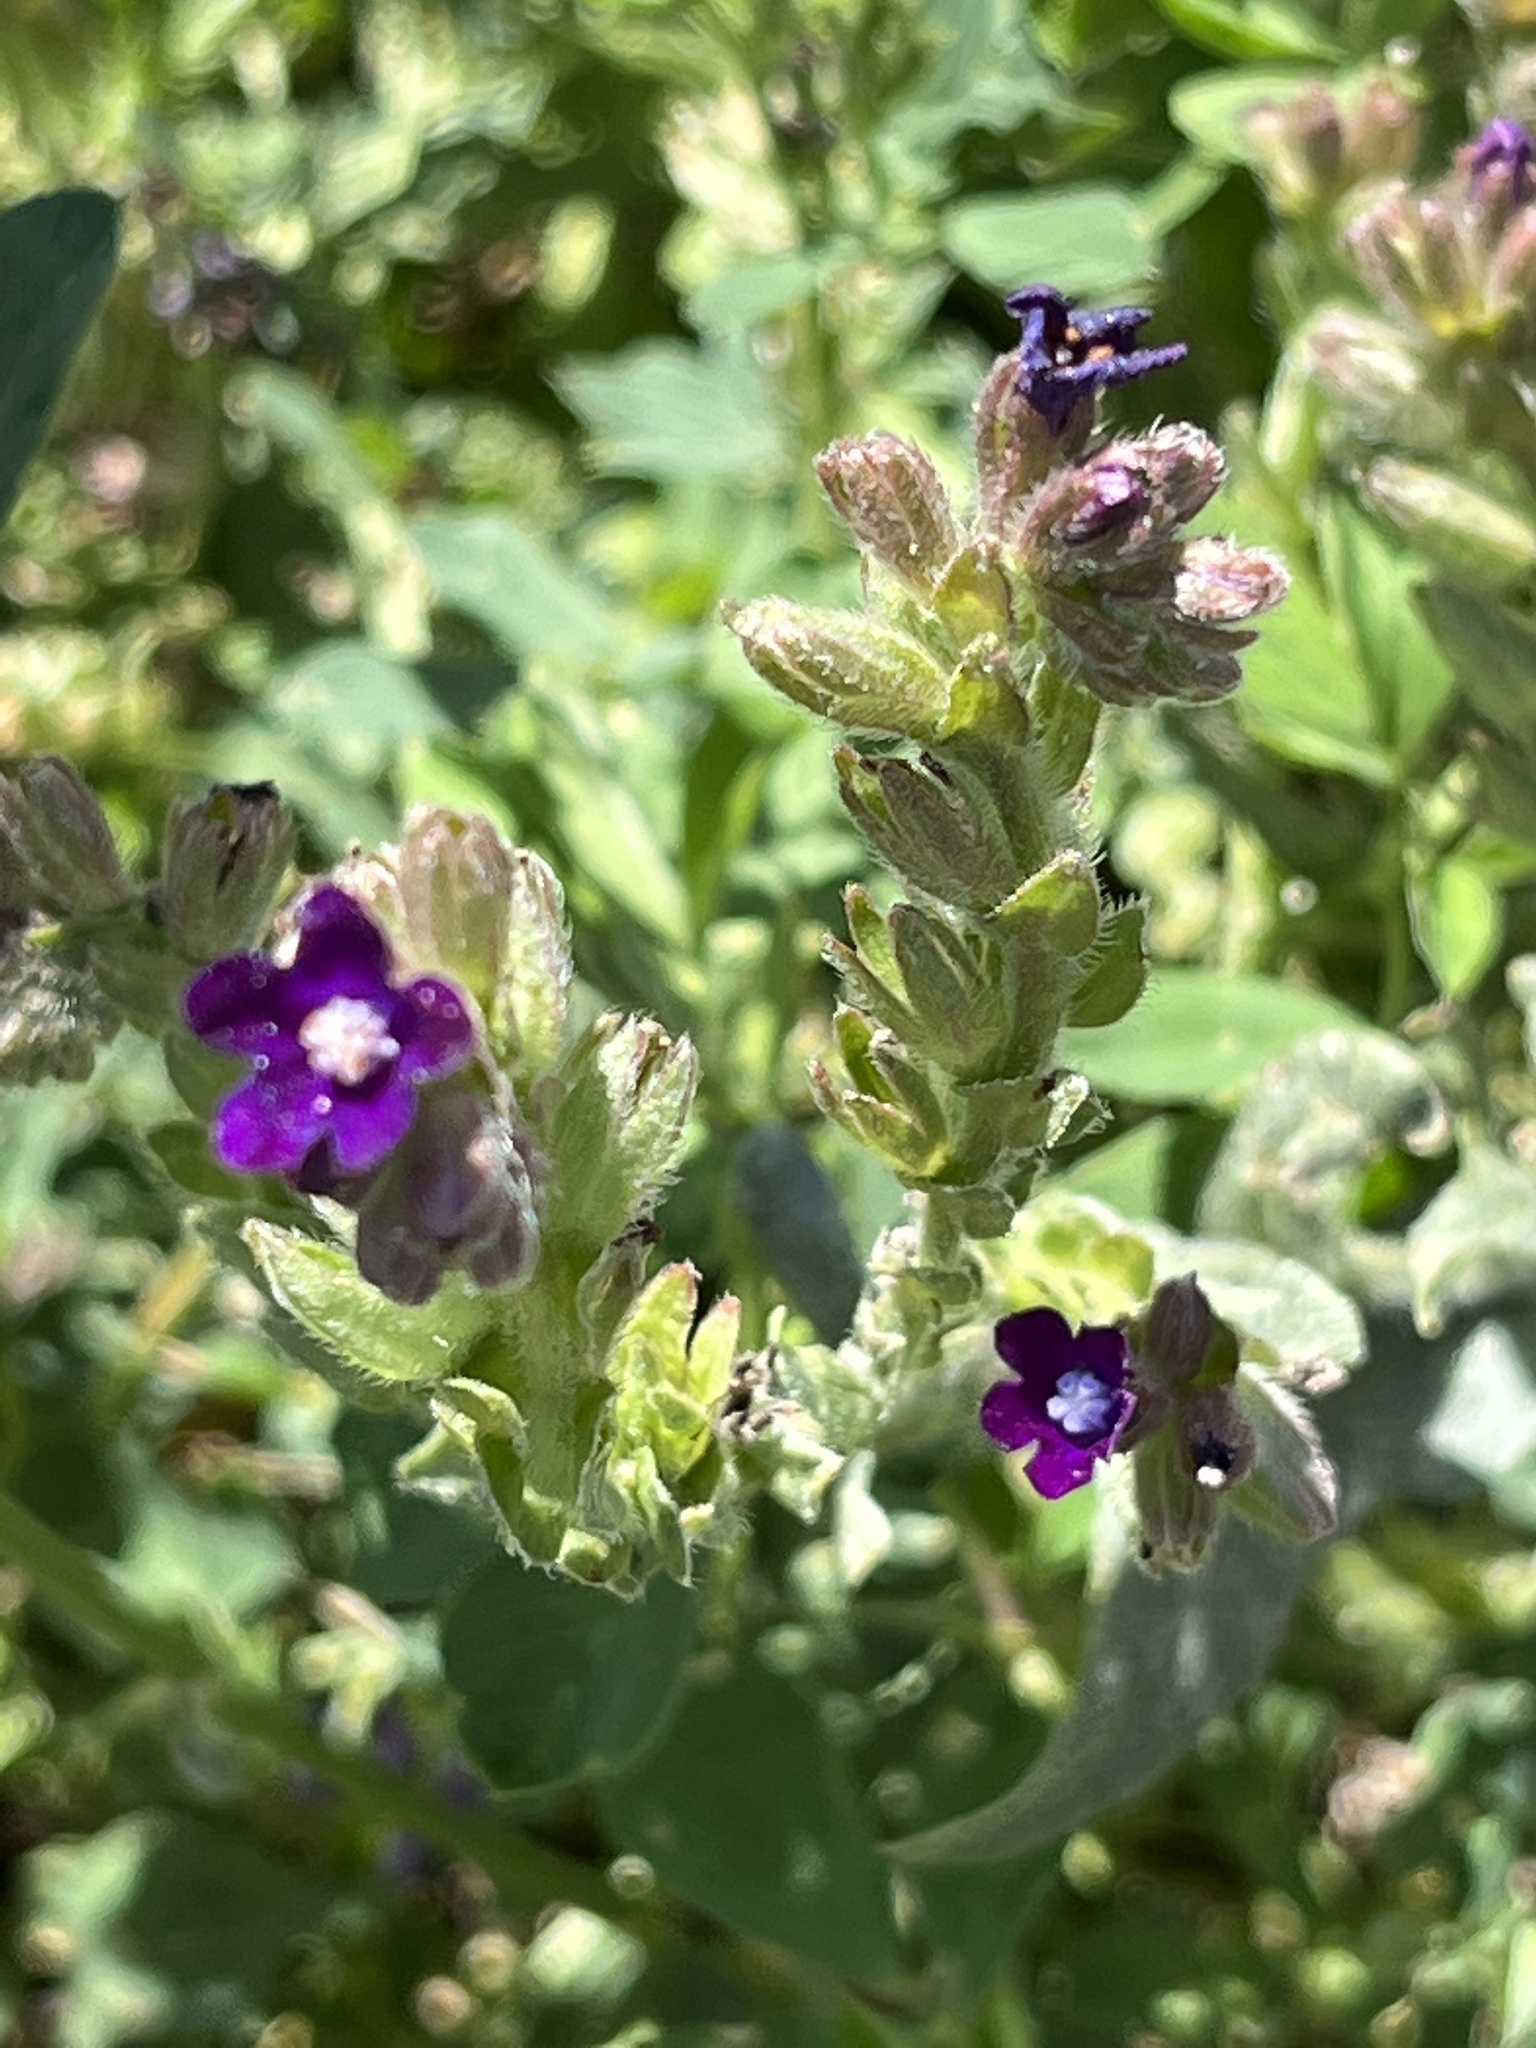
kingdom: Plantae
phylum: Tracheophyta
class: Magnoliopsida
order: Boraginales
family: Boraginaceae
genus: Anchusa
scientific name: Anchusa officinalis
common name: Alkanet
